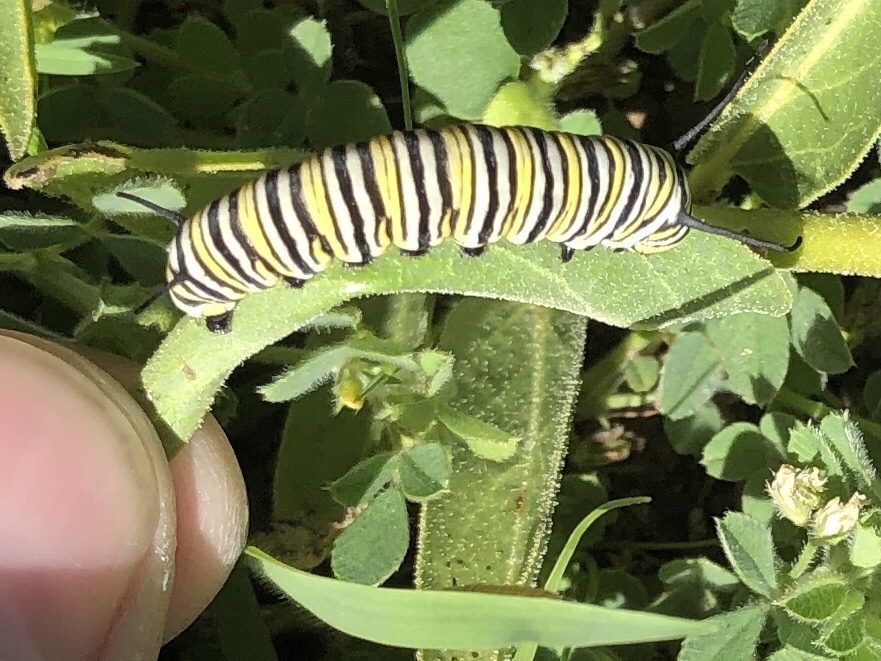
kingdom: Animalia
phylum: Arthropoda
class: Insecta
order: Lepidoptera
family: Nymphalidae
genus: Danaus
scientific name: Danaus plexippus
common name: Monarch
